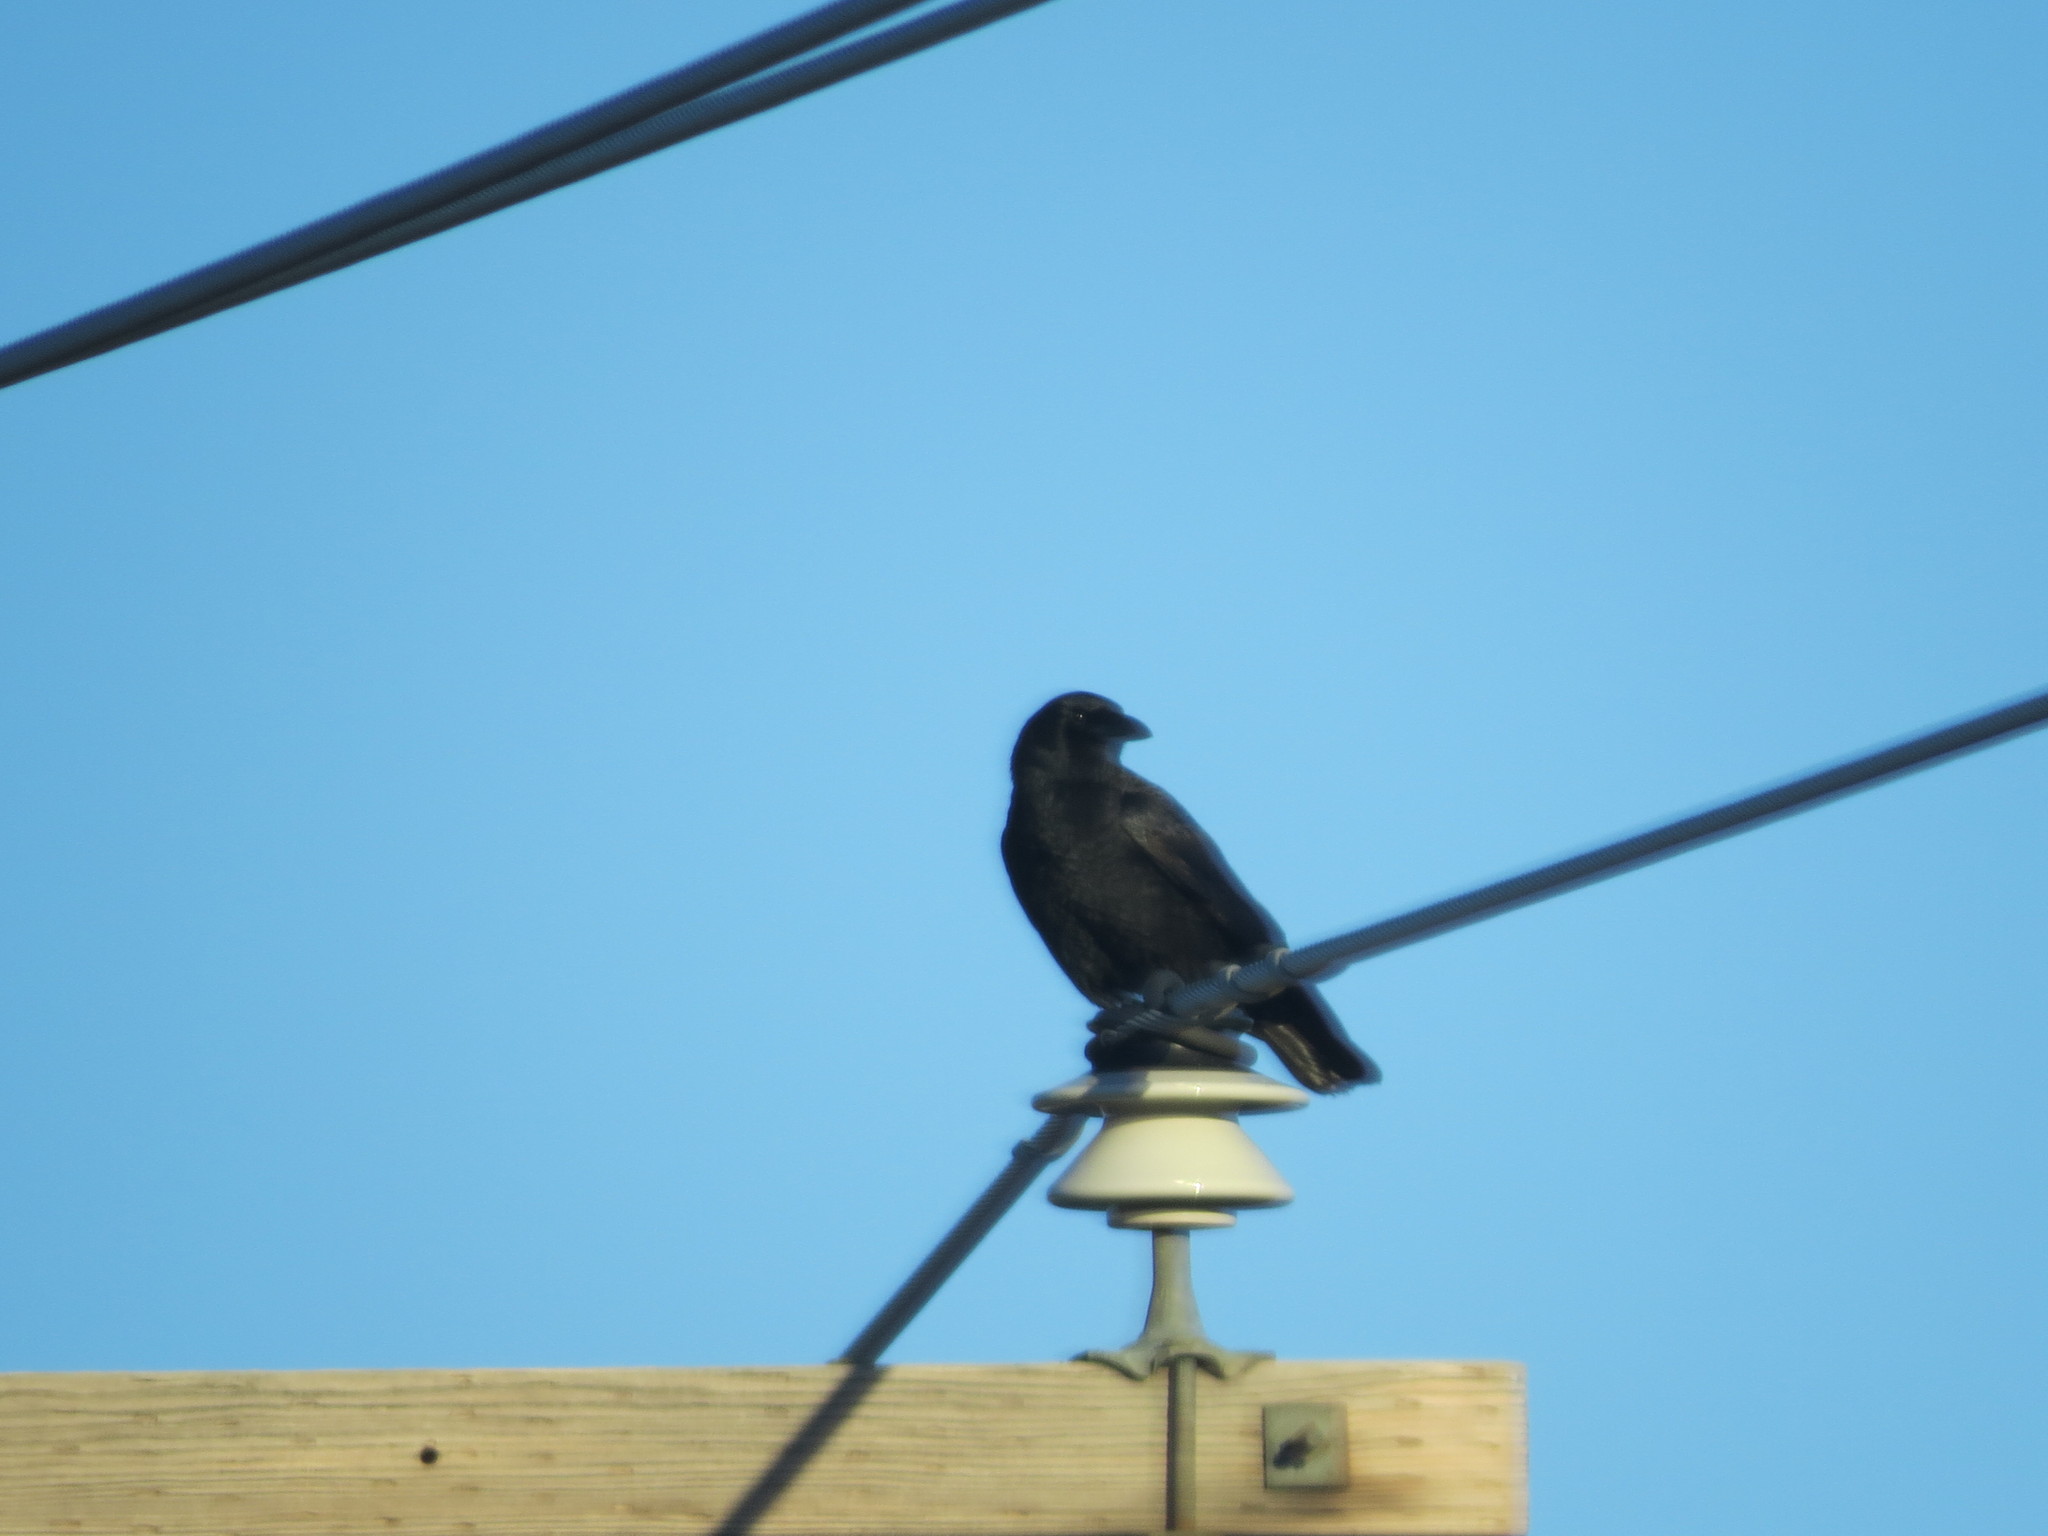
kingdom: Animalia
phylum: Chordata
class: Aves
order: Passeriformes
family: Corvidae
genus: Corvus
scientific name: Corvus brachyrhynchos
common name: American crow
